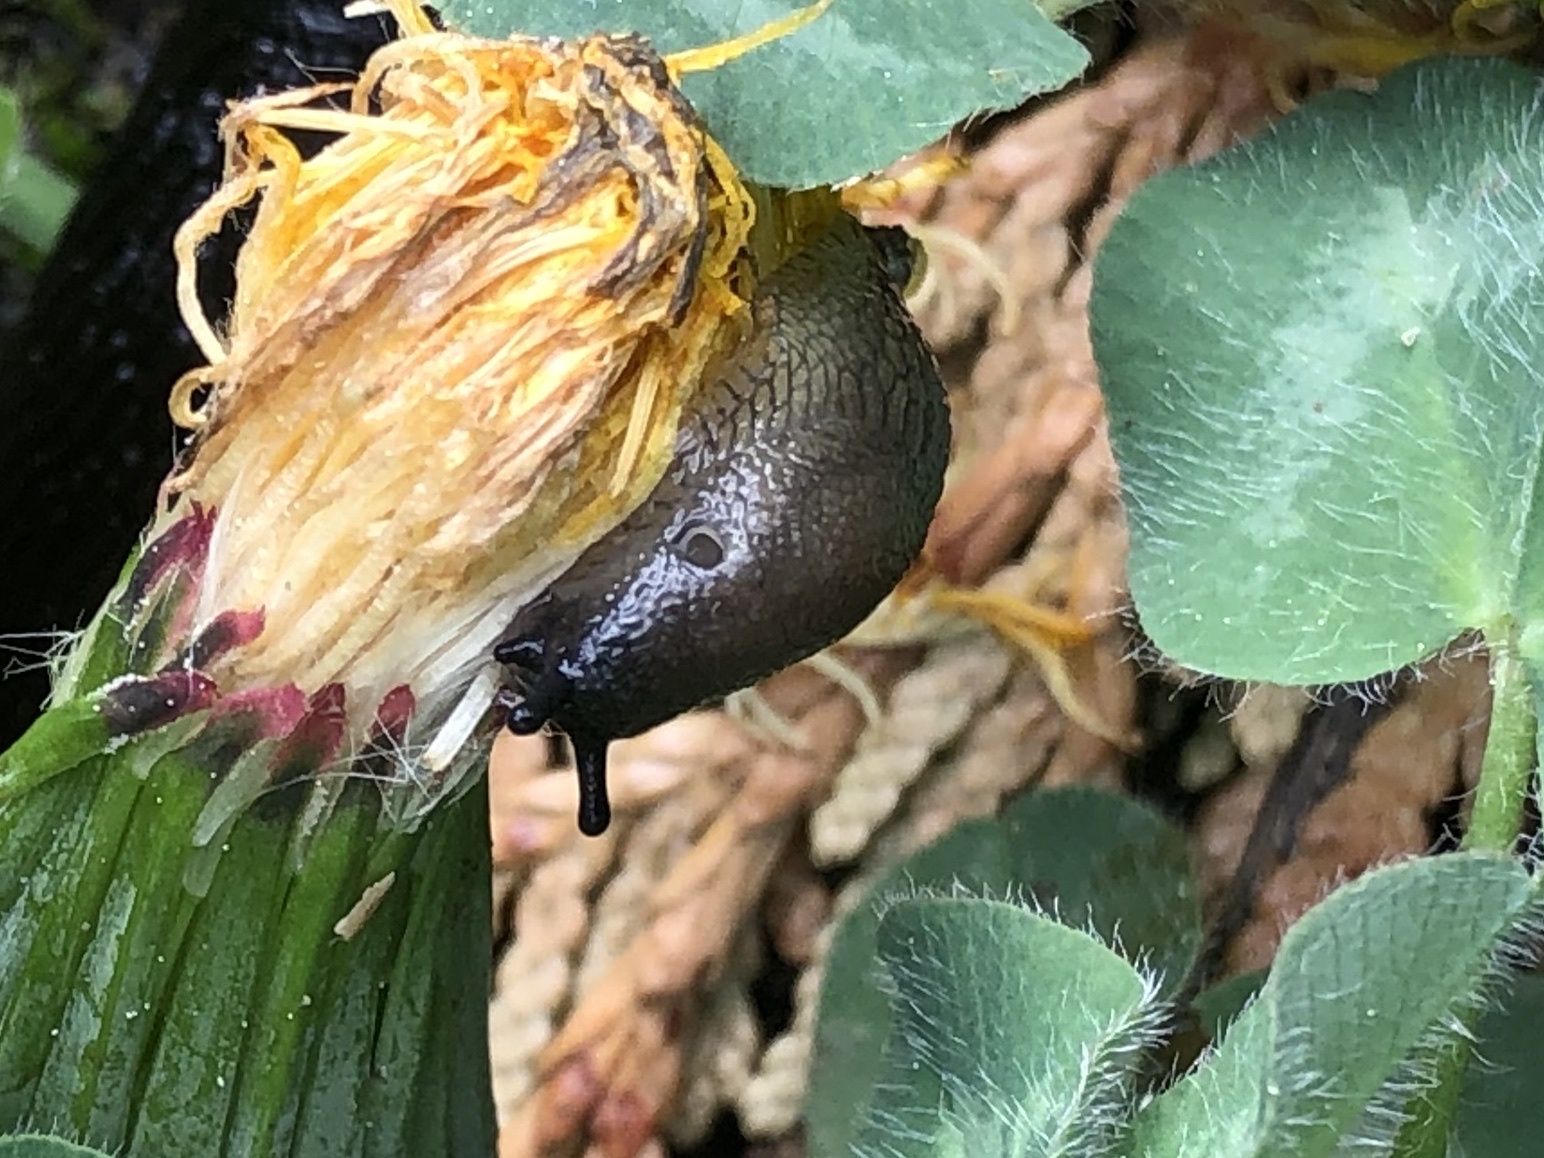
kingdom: Animalia
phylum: Mollusca
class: Gastropoda
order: Stylommatophora
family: Arionidae
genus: Arion
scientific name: Arion rufus
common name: Chocolate arion
